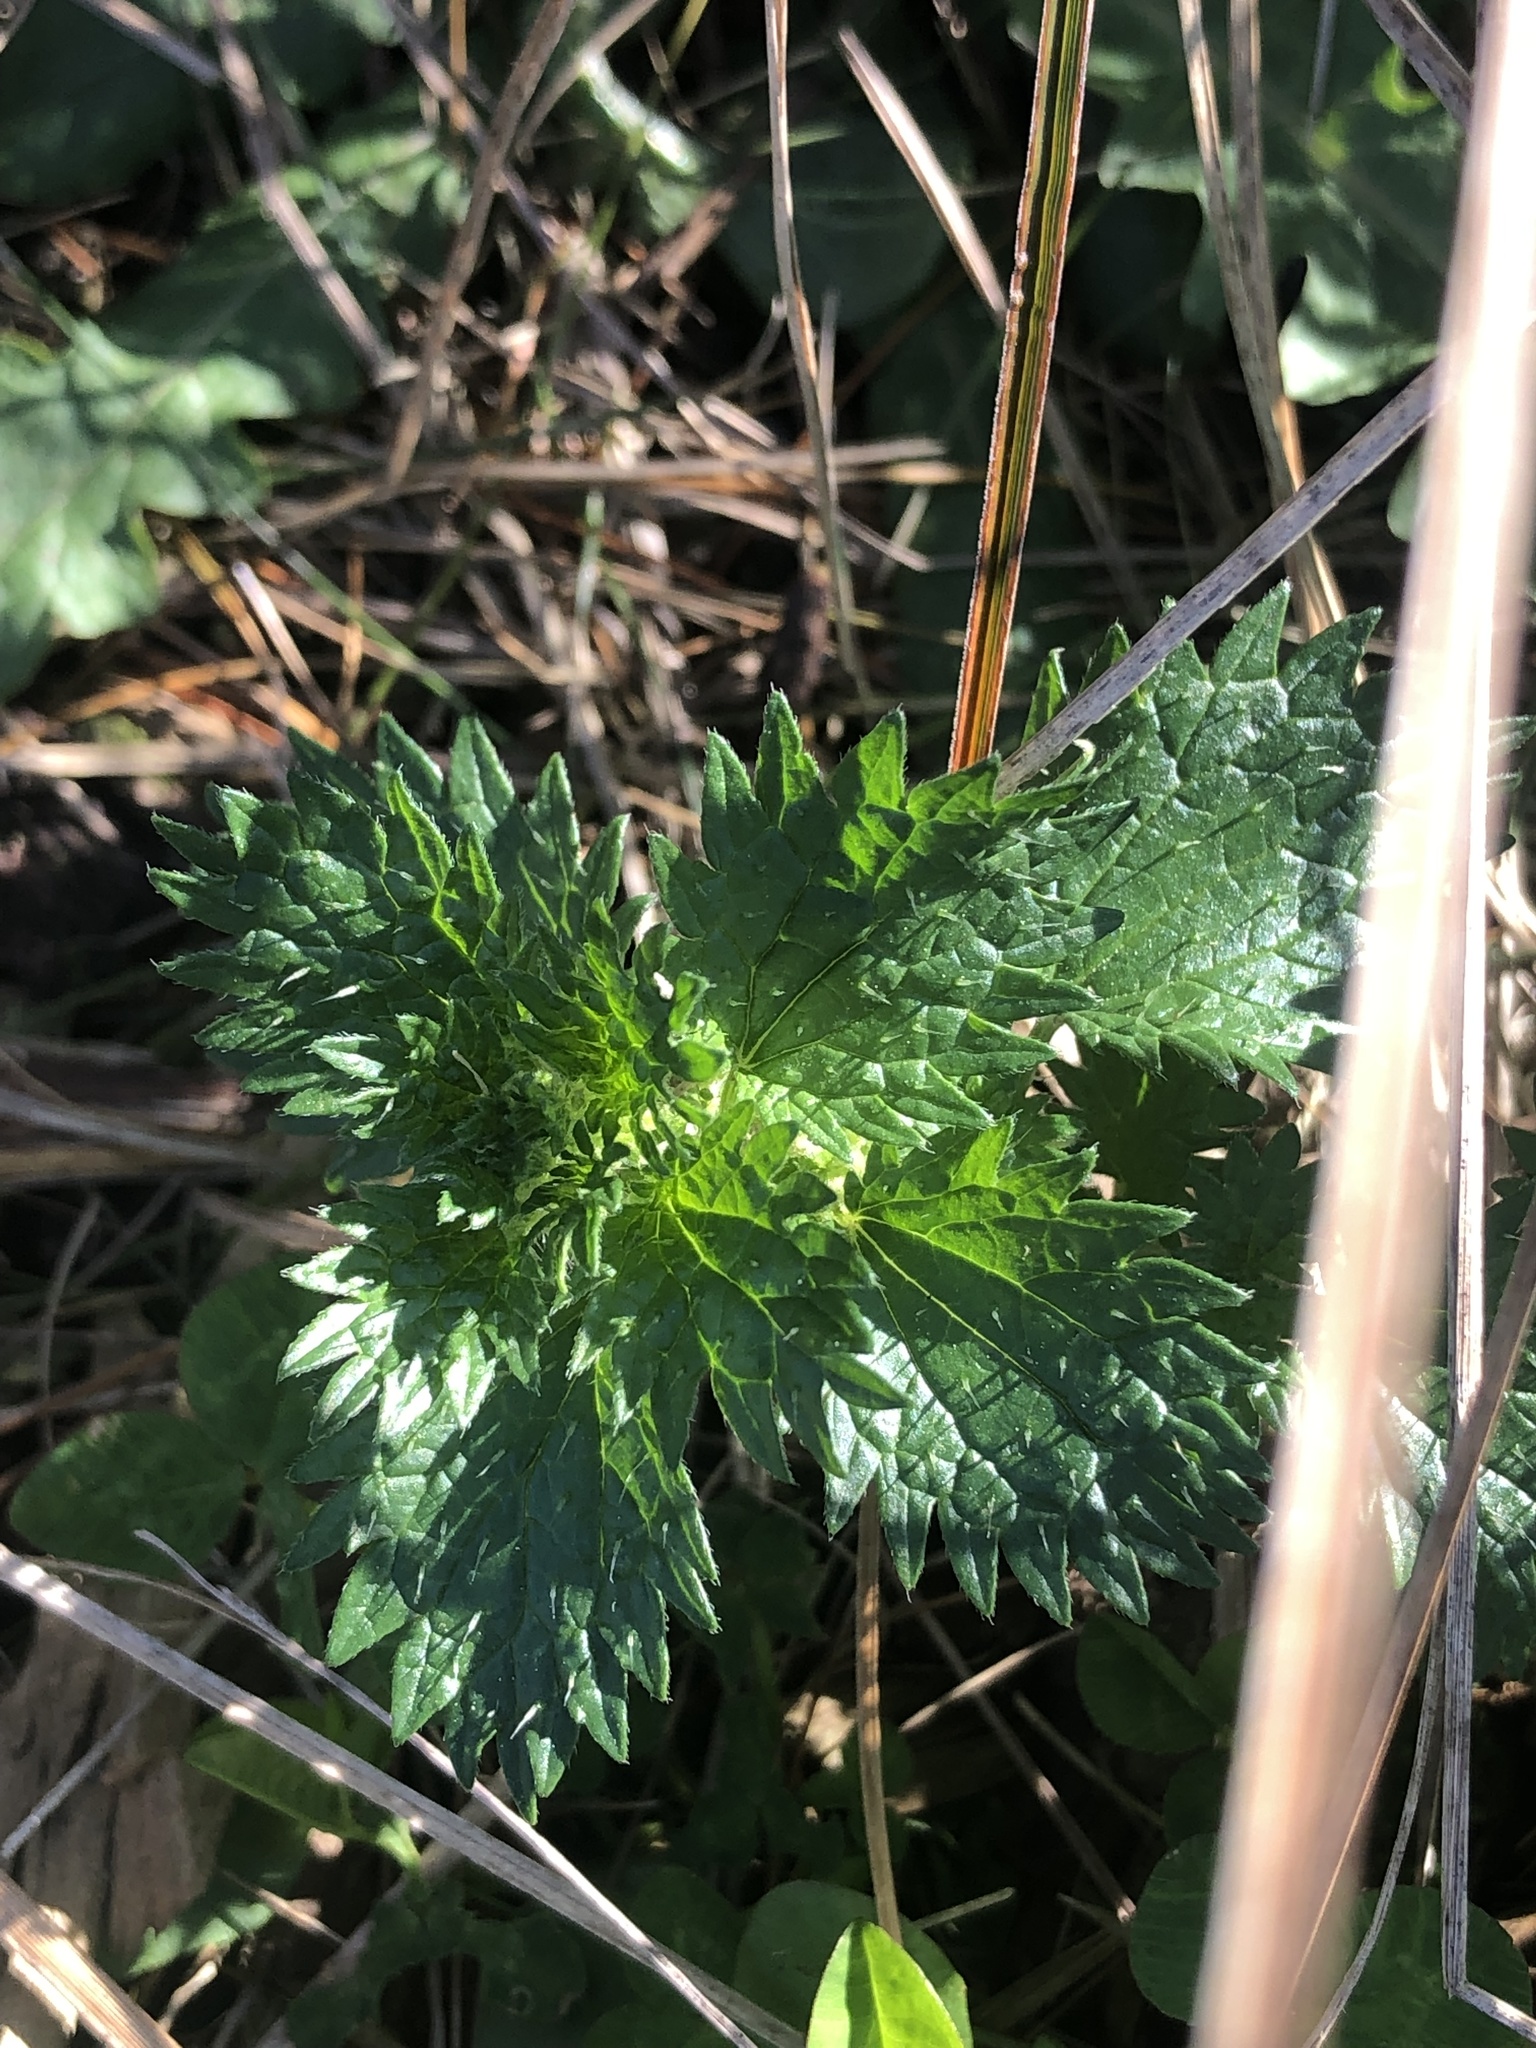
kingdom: Plantae
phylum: Tracheophyta
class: Magnoliopsida
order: Rosales
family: Urticaceae
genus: Urtica
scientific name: Urtica urens
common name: Dwarf nettle
